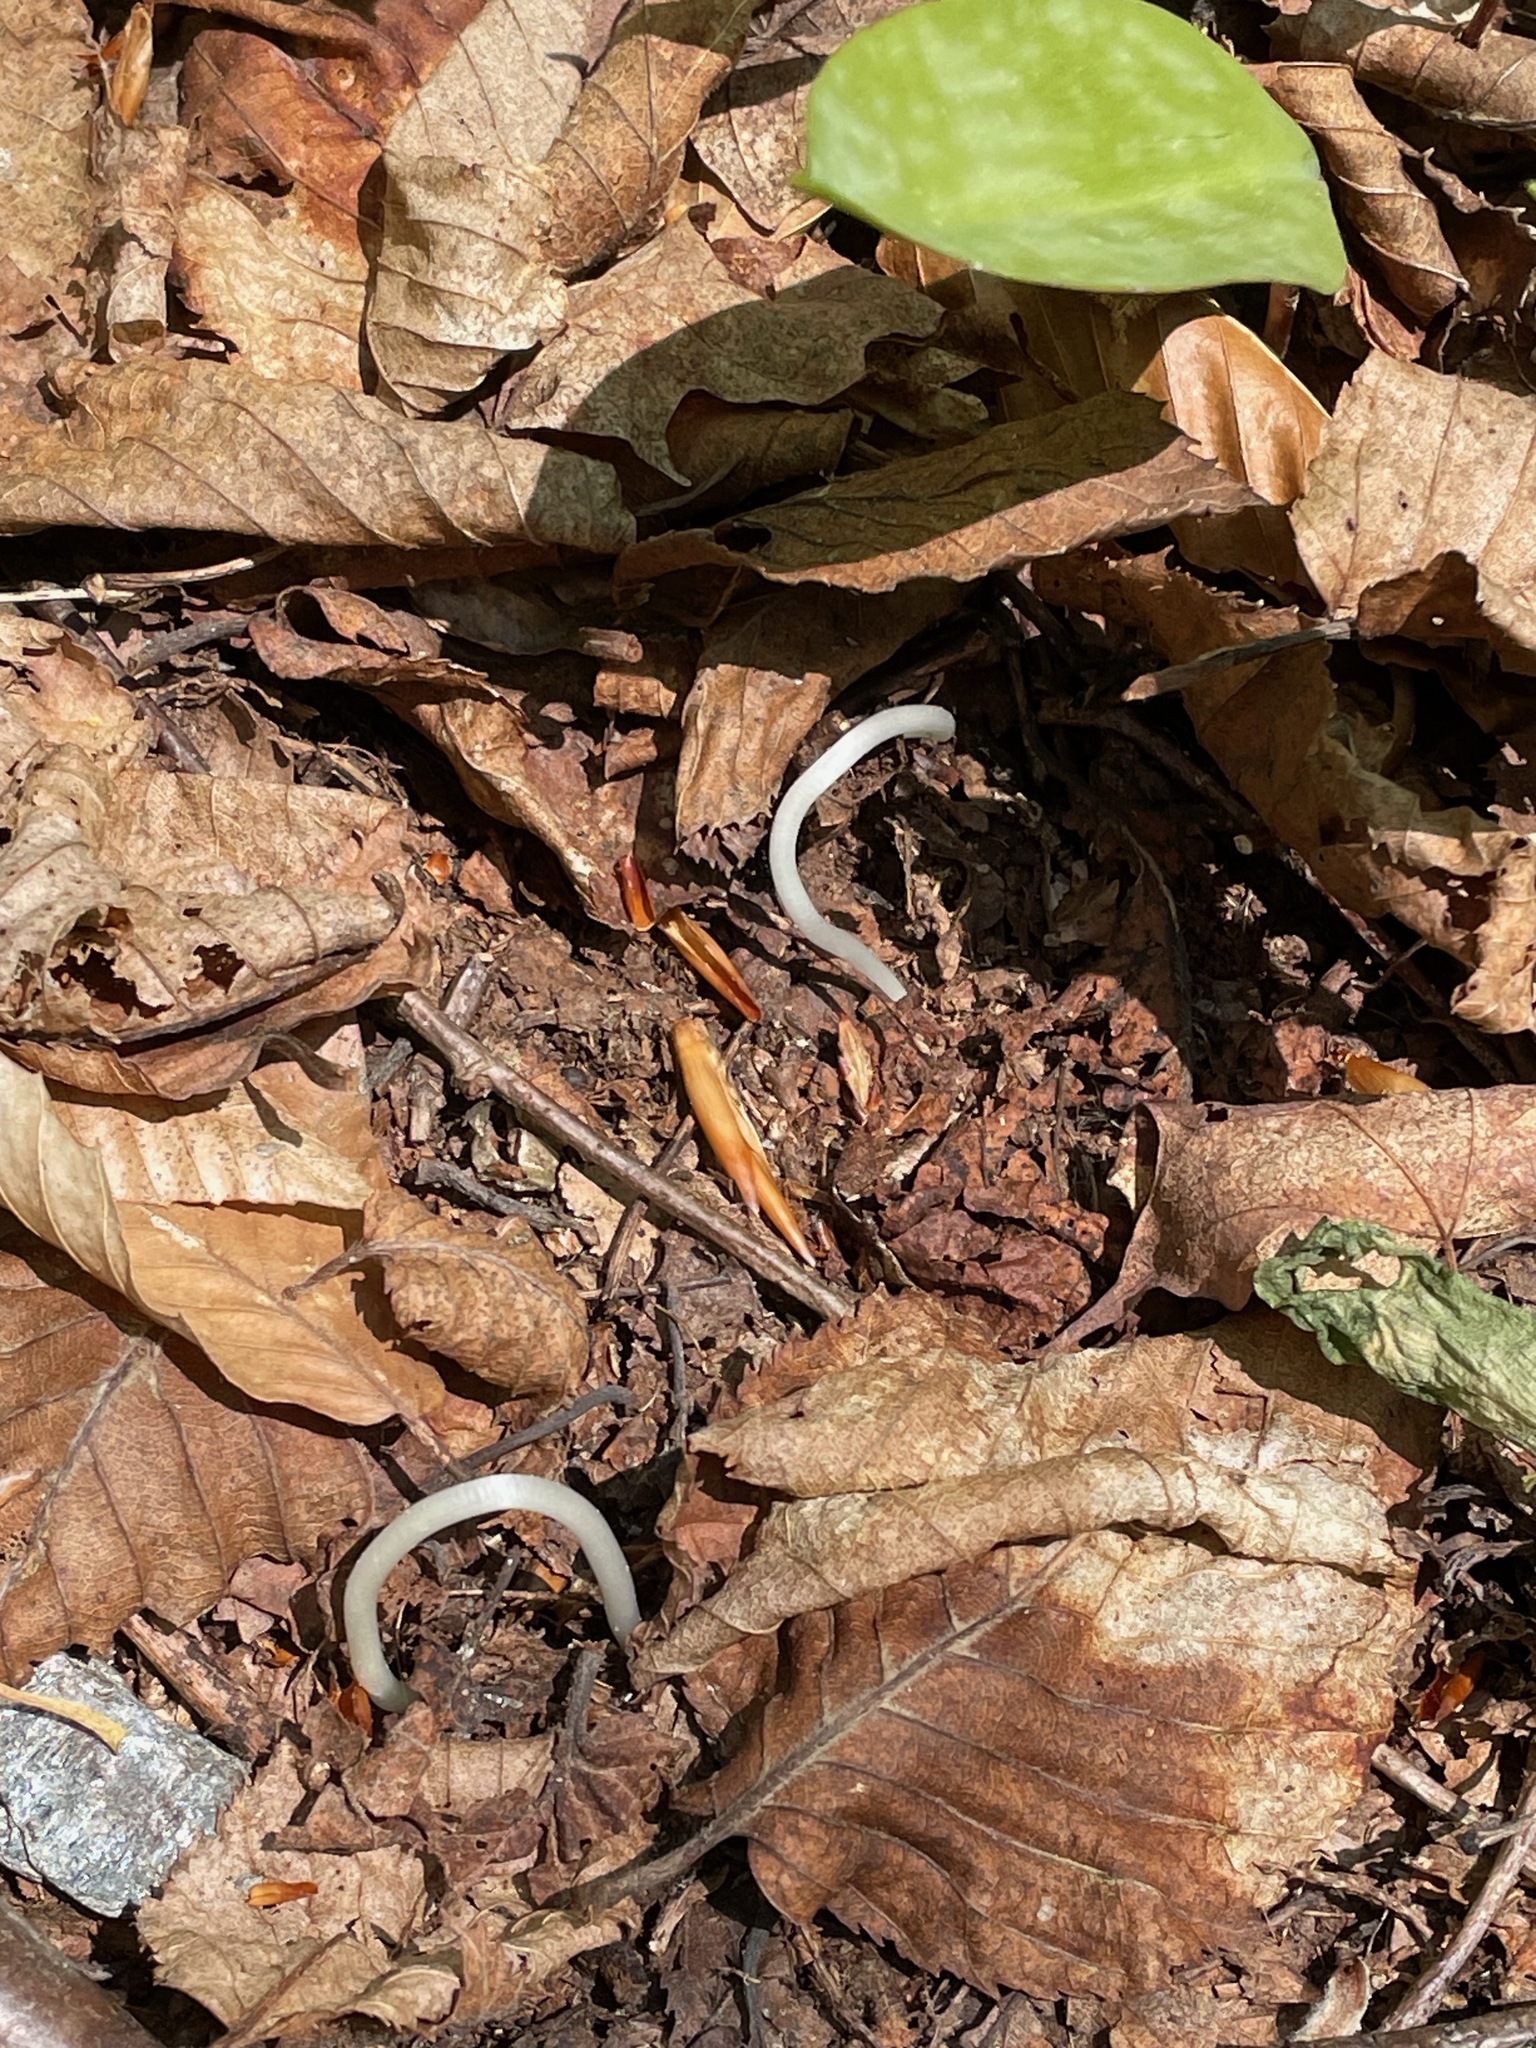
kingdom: Plantae
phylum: Tracheophyta
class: Liliopsida
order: Liliales
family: Liliaceae
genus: Erythronium
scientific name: Erythronium americanum
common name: Yellow adder's-tongue
